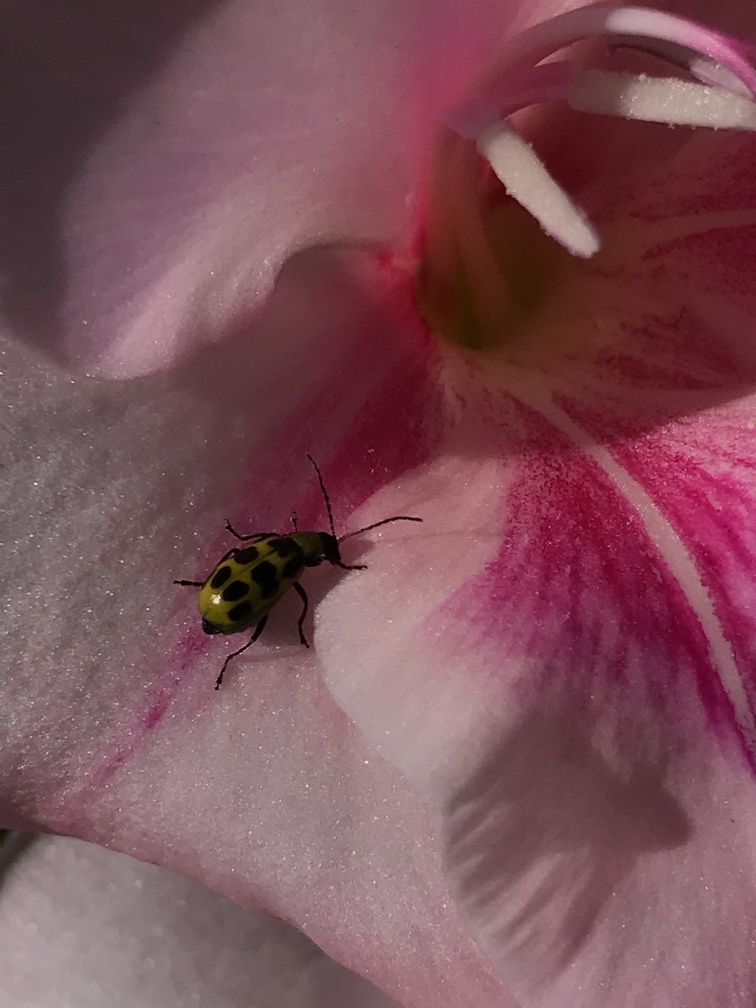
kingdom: Animalia
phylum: Arthropoda
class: Insecta
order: Coleoptera
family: Chrysomelidae
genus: Diabrotica
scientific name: Diabrotica undecimpunctata
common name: Spotted cucumber beetle
